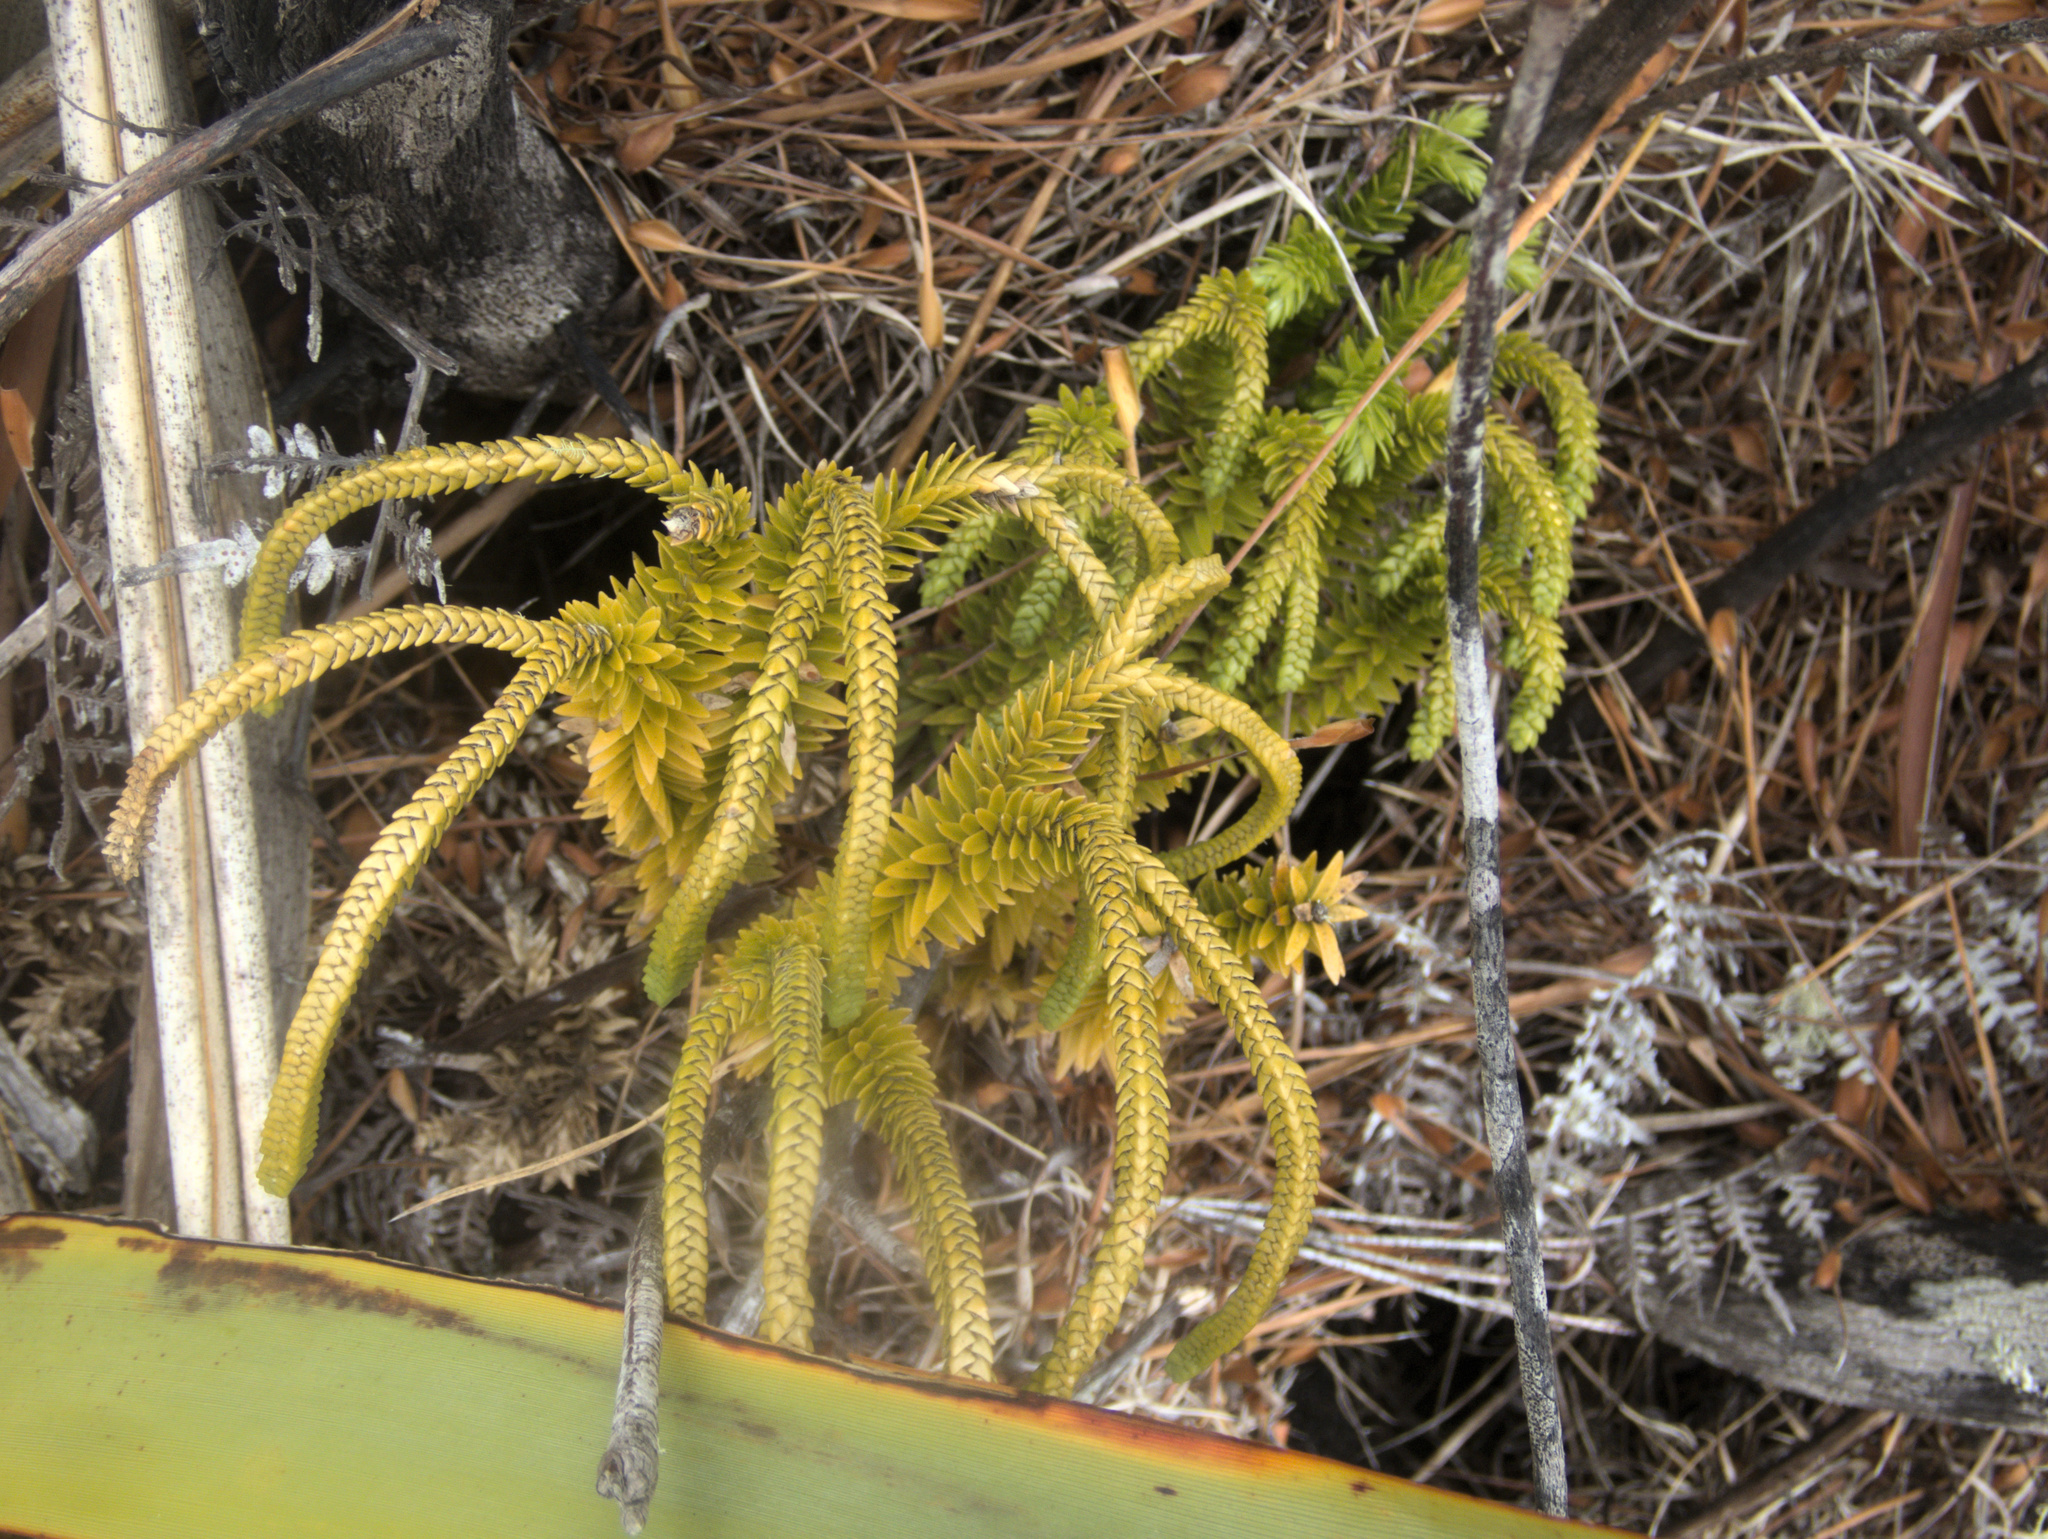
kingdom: Plantae
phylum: Tracheophyta
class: Lycopodiopsida
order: Lycopodiales
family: Lycopodiaceae
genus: Phlegmariurus
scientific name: Phlegmariurus varius
